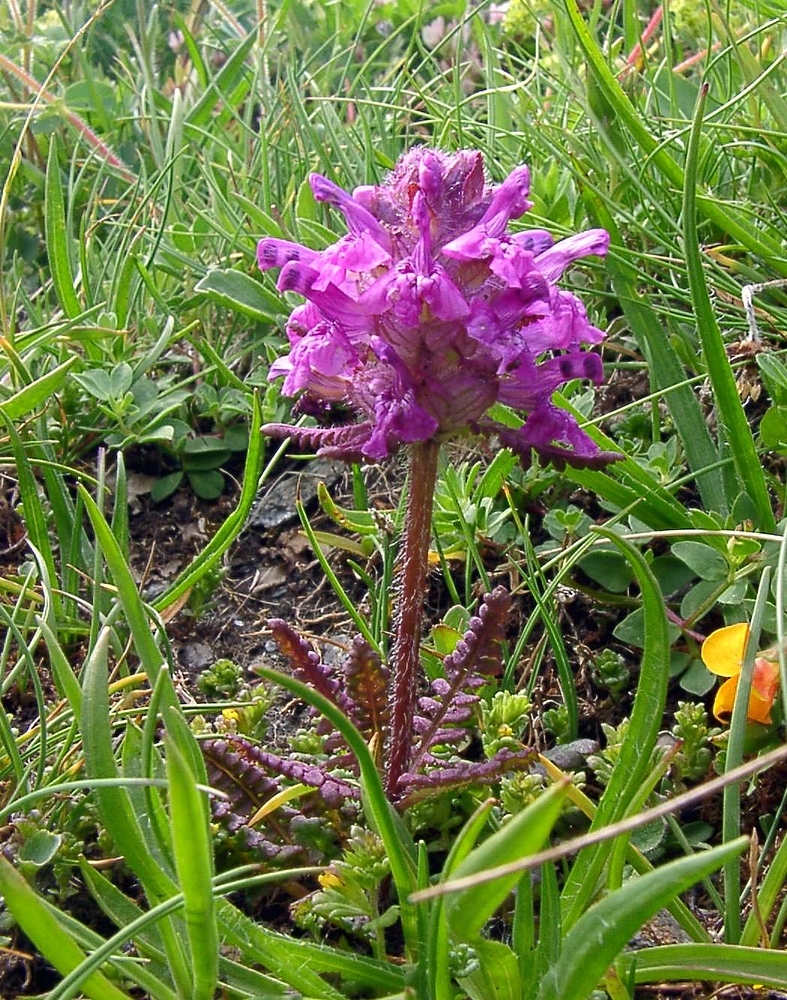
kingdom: Plantae
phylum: Tracheophyta
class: Magnoliopsida
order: Lamiales
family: Orobanchaceae
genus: Pedicularis
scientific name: Pedicularis verticillata
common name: Whorled lousewort
